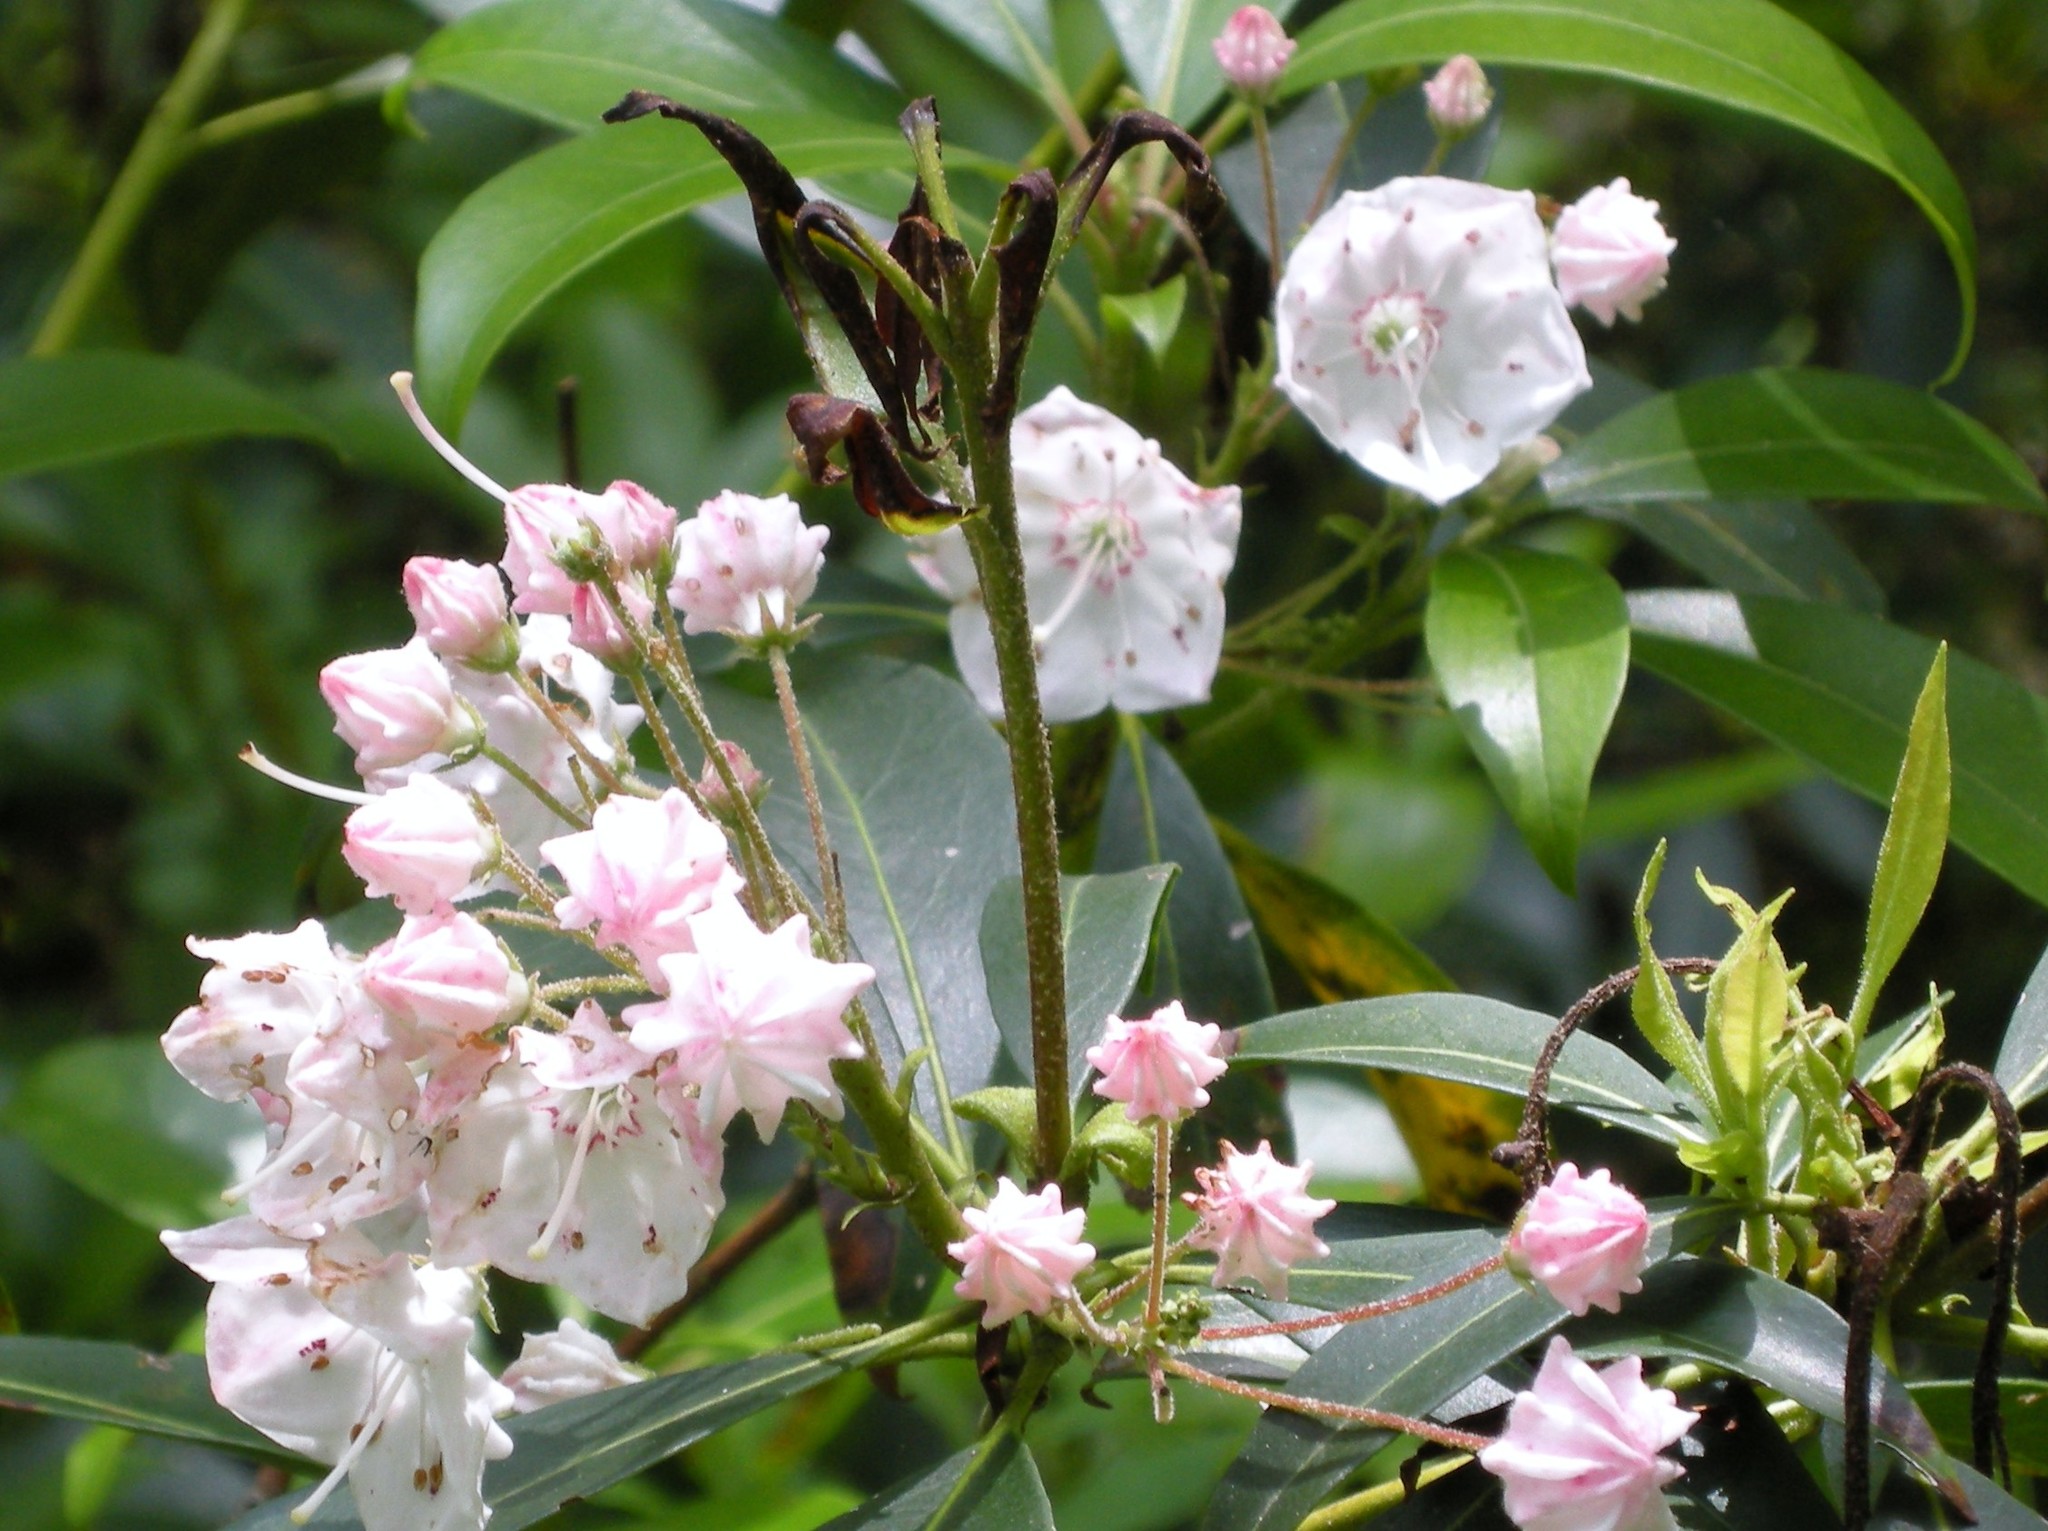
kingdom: Plantae
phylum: Tracheophyta
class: Magnoliopsida
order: Ericales
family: Ericaceae
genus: Kalmia
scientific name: Kalmia latifolia
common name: Mountain-laurel
